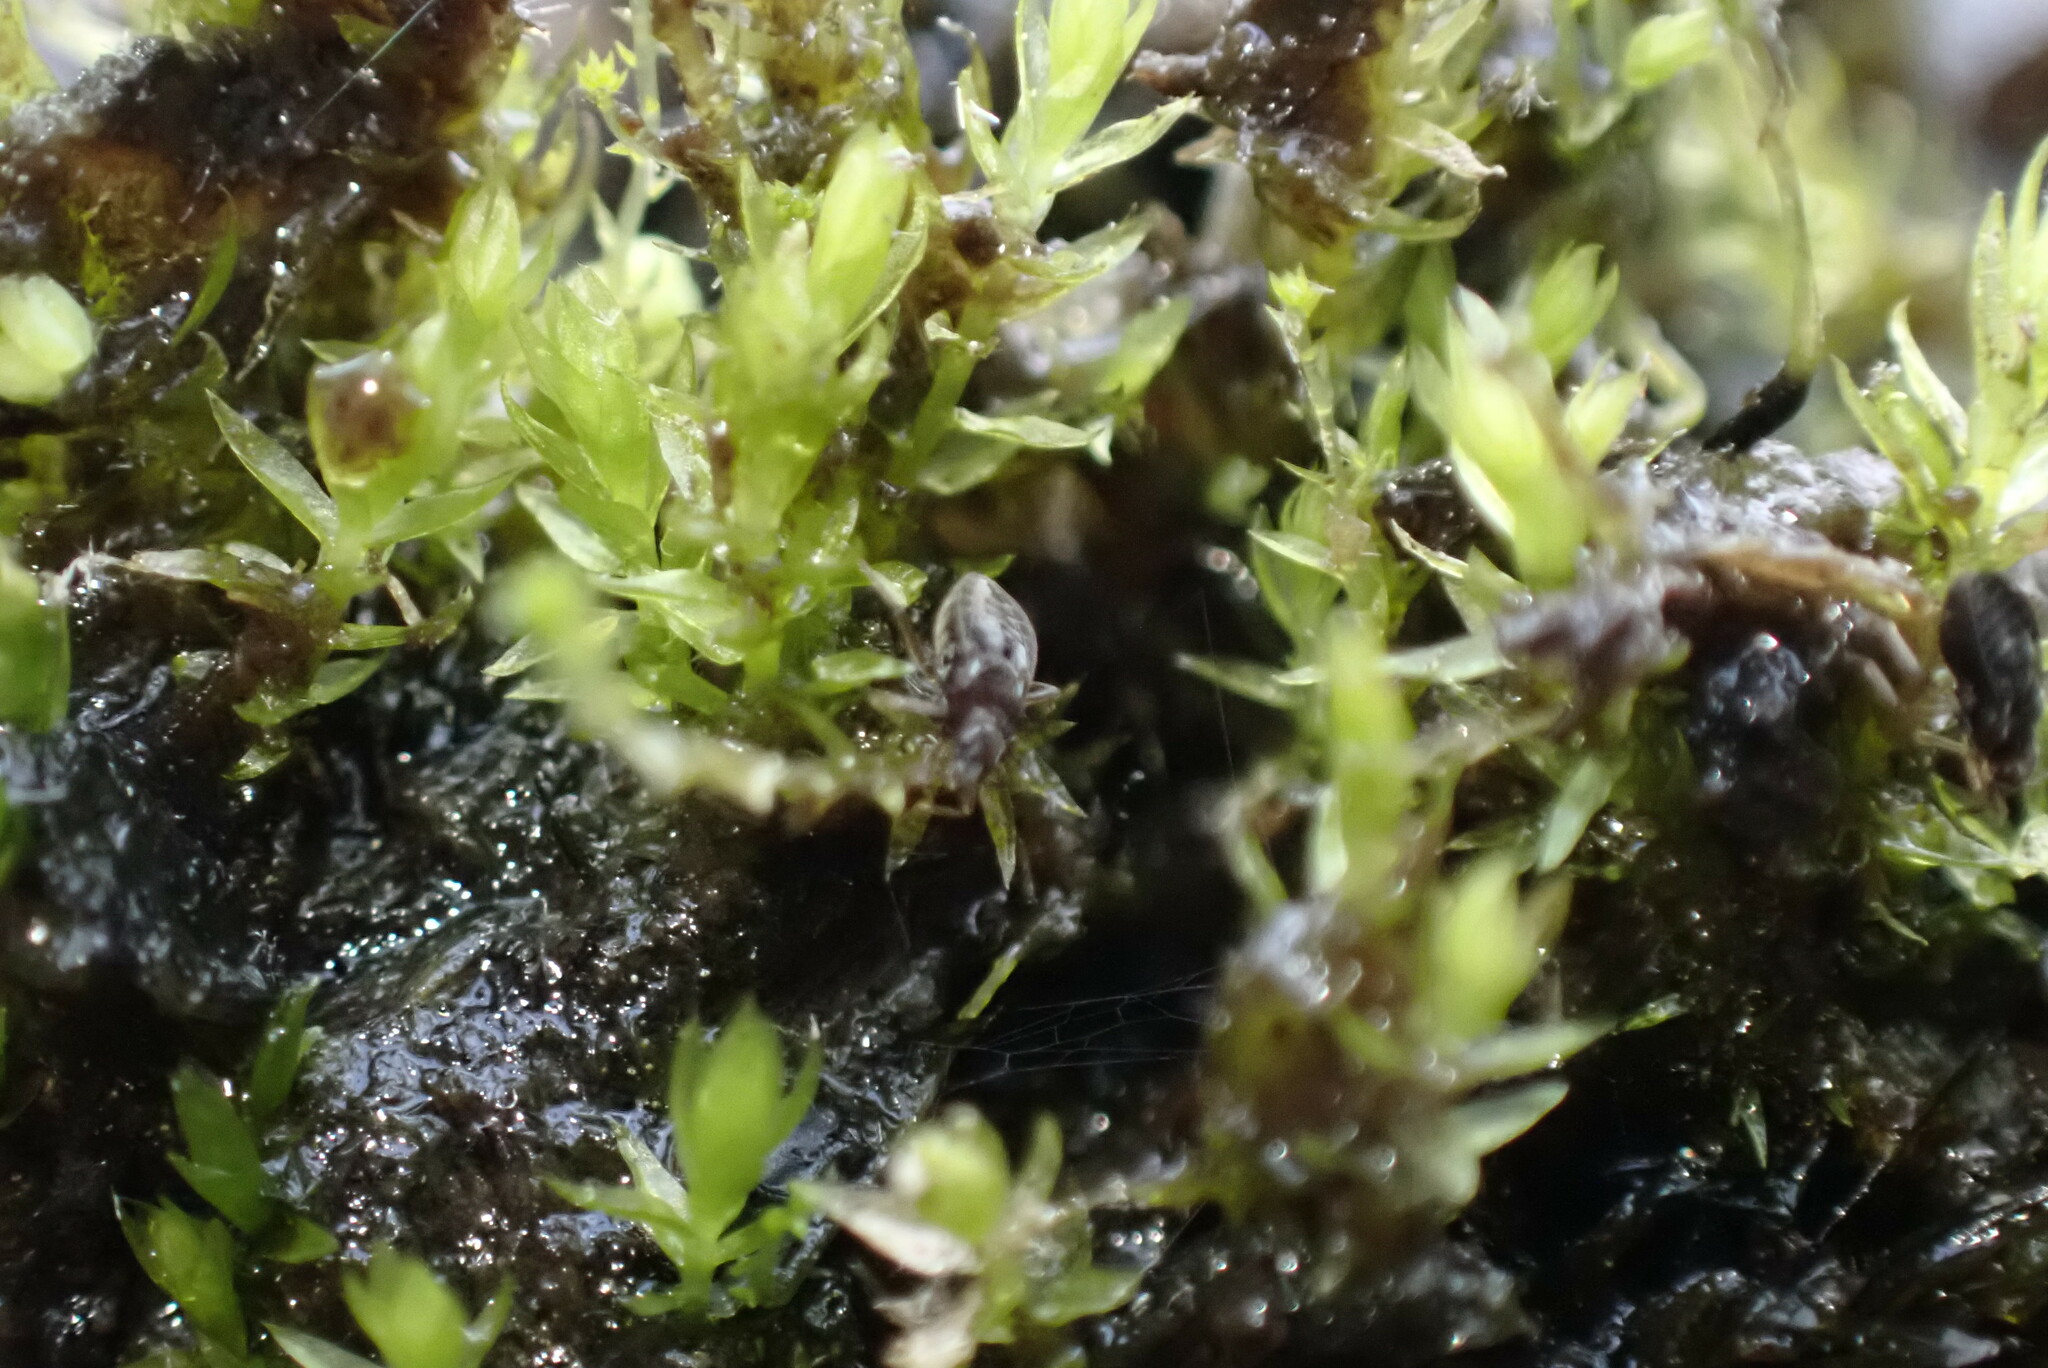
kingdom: Animalia
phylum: Arthropoda
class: Insecta
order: Hemiptera
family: Hebridae
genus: Hebrus
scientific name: Hebrus
